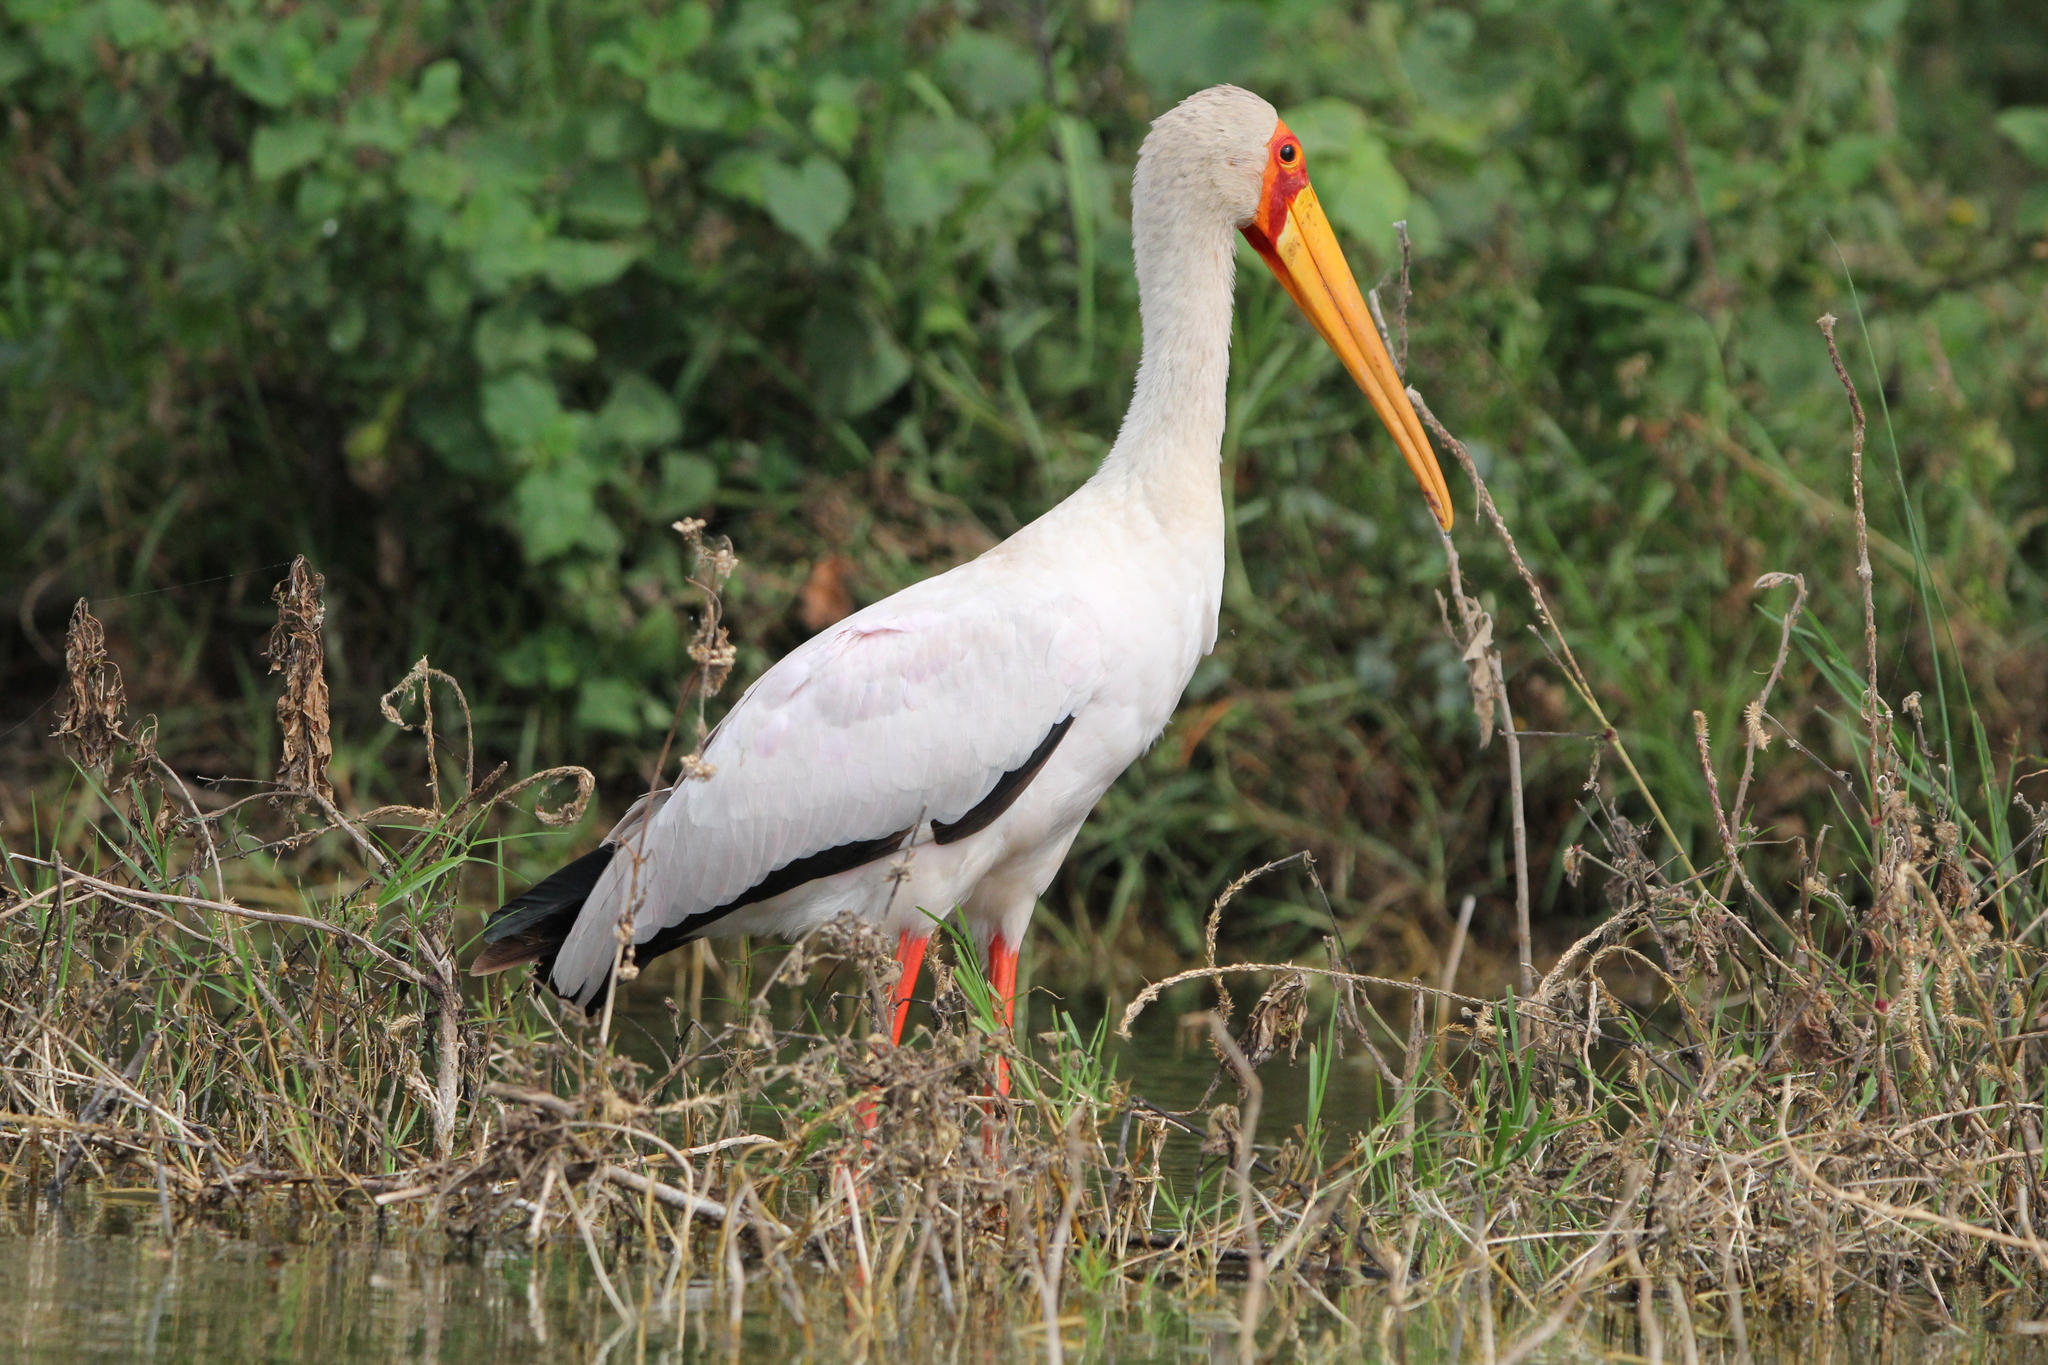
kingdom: Animalia
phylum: Chordata
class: Aves
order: Ciconiiformes
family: Ciconiidae
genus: Mycteria
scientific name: Mycteria ibis
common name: Yellow-billed stork
